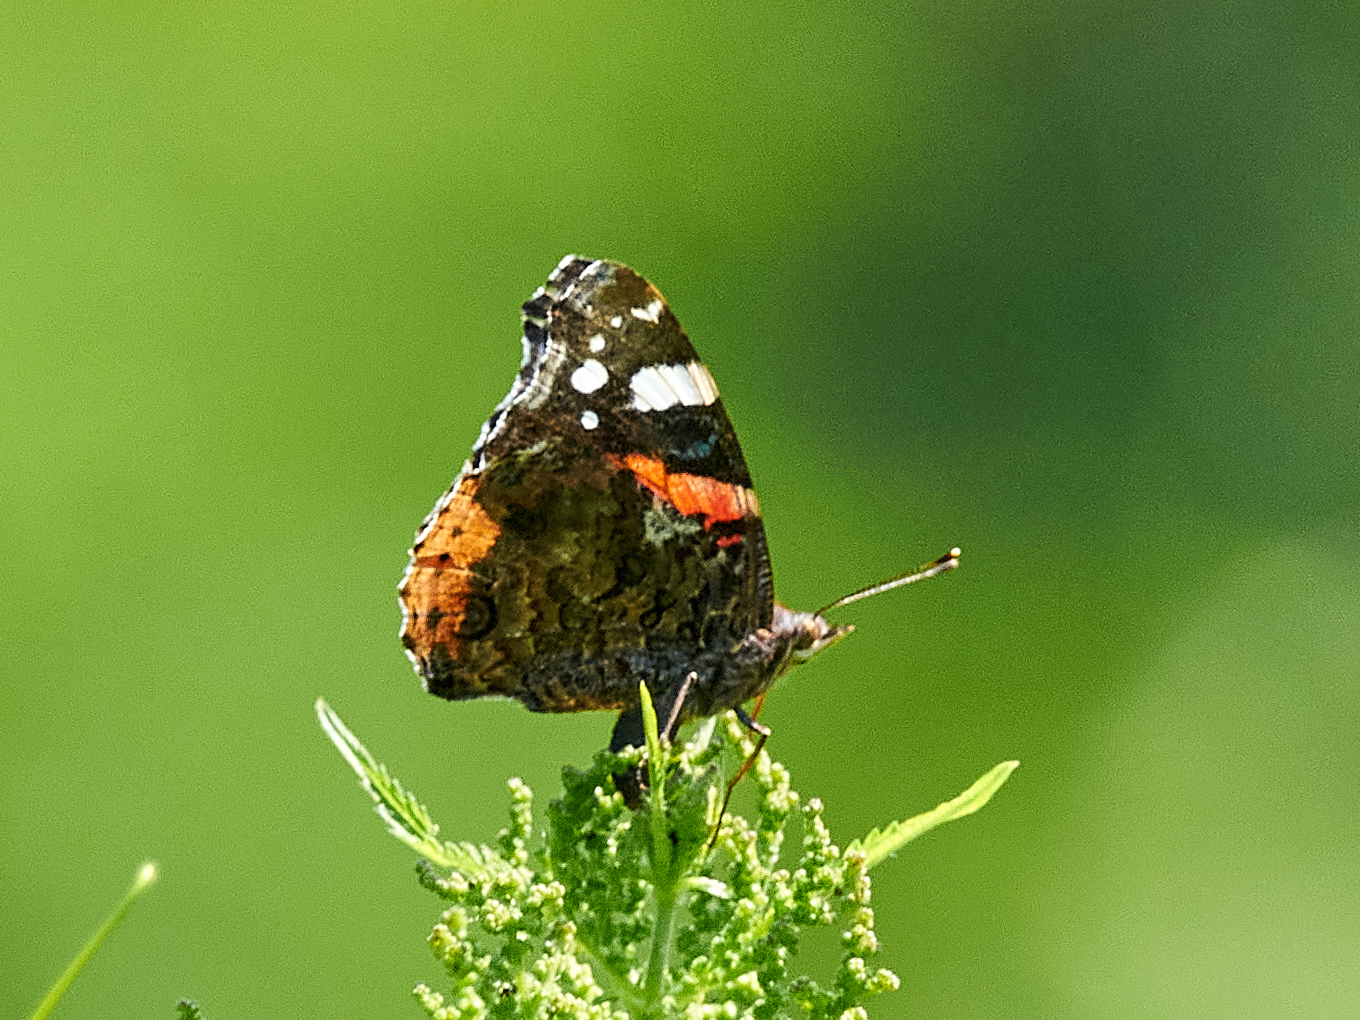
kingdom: Animalia
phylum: Arthropoda
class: Insecta
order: Lepidoptera
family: Nymphalidae
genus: Vanessa
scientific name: Vanessa atalanta
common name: Red admiral
